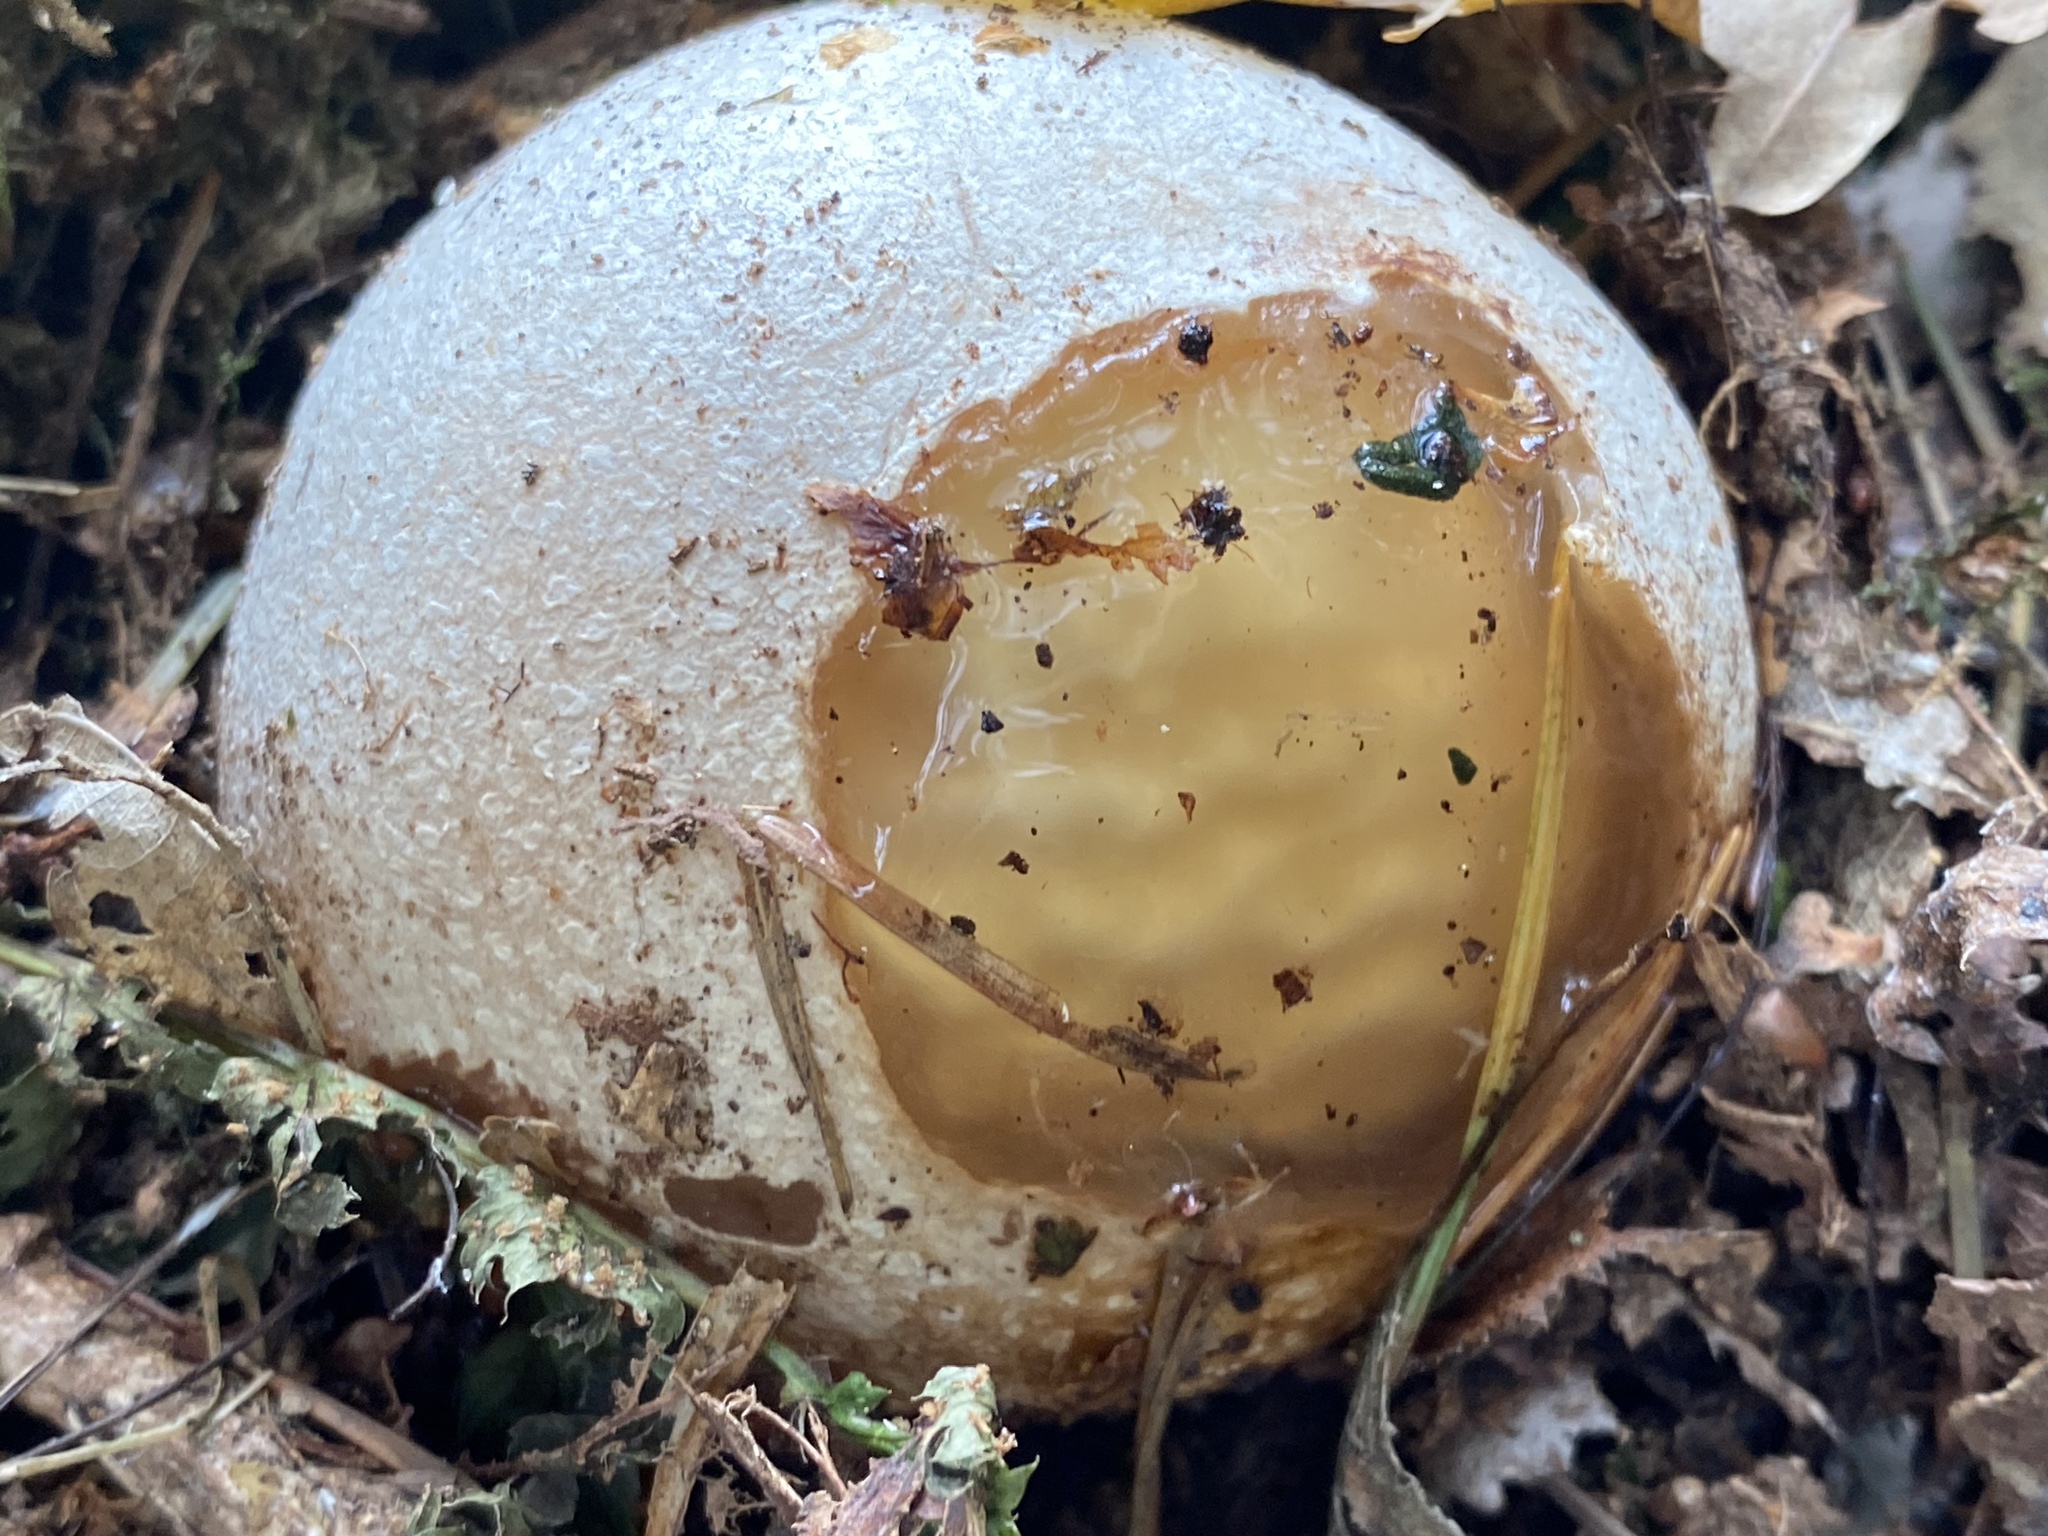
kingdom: Fungi
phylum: Basidiomycota
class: Agaricomycetes
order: Phallales
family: Phallaceae
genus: Phallus
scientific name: Phallus impudicus
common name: Common stinkhorn
